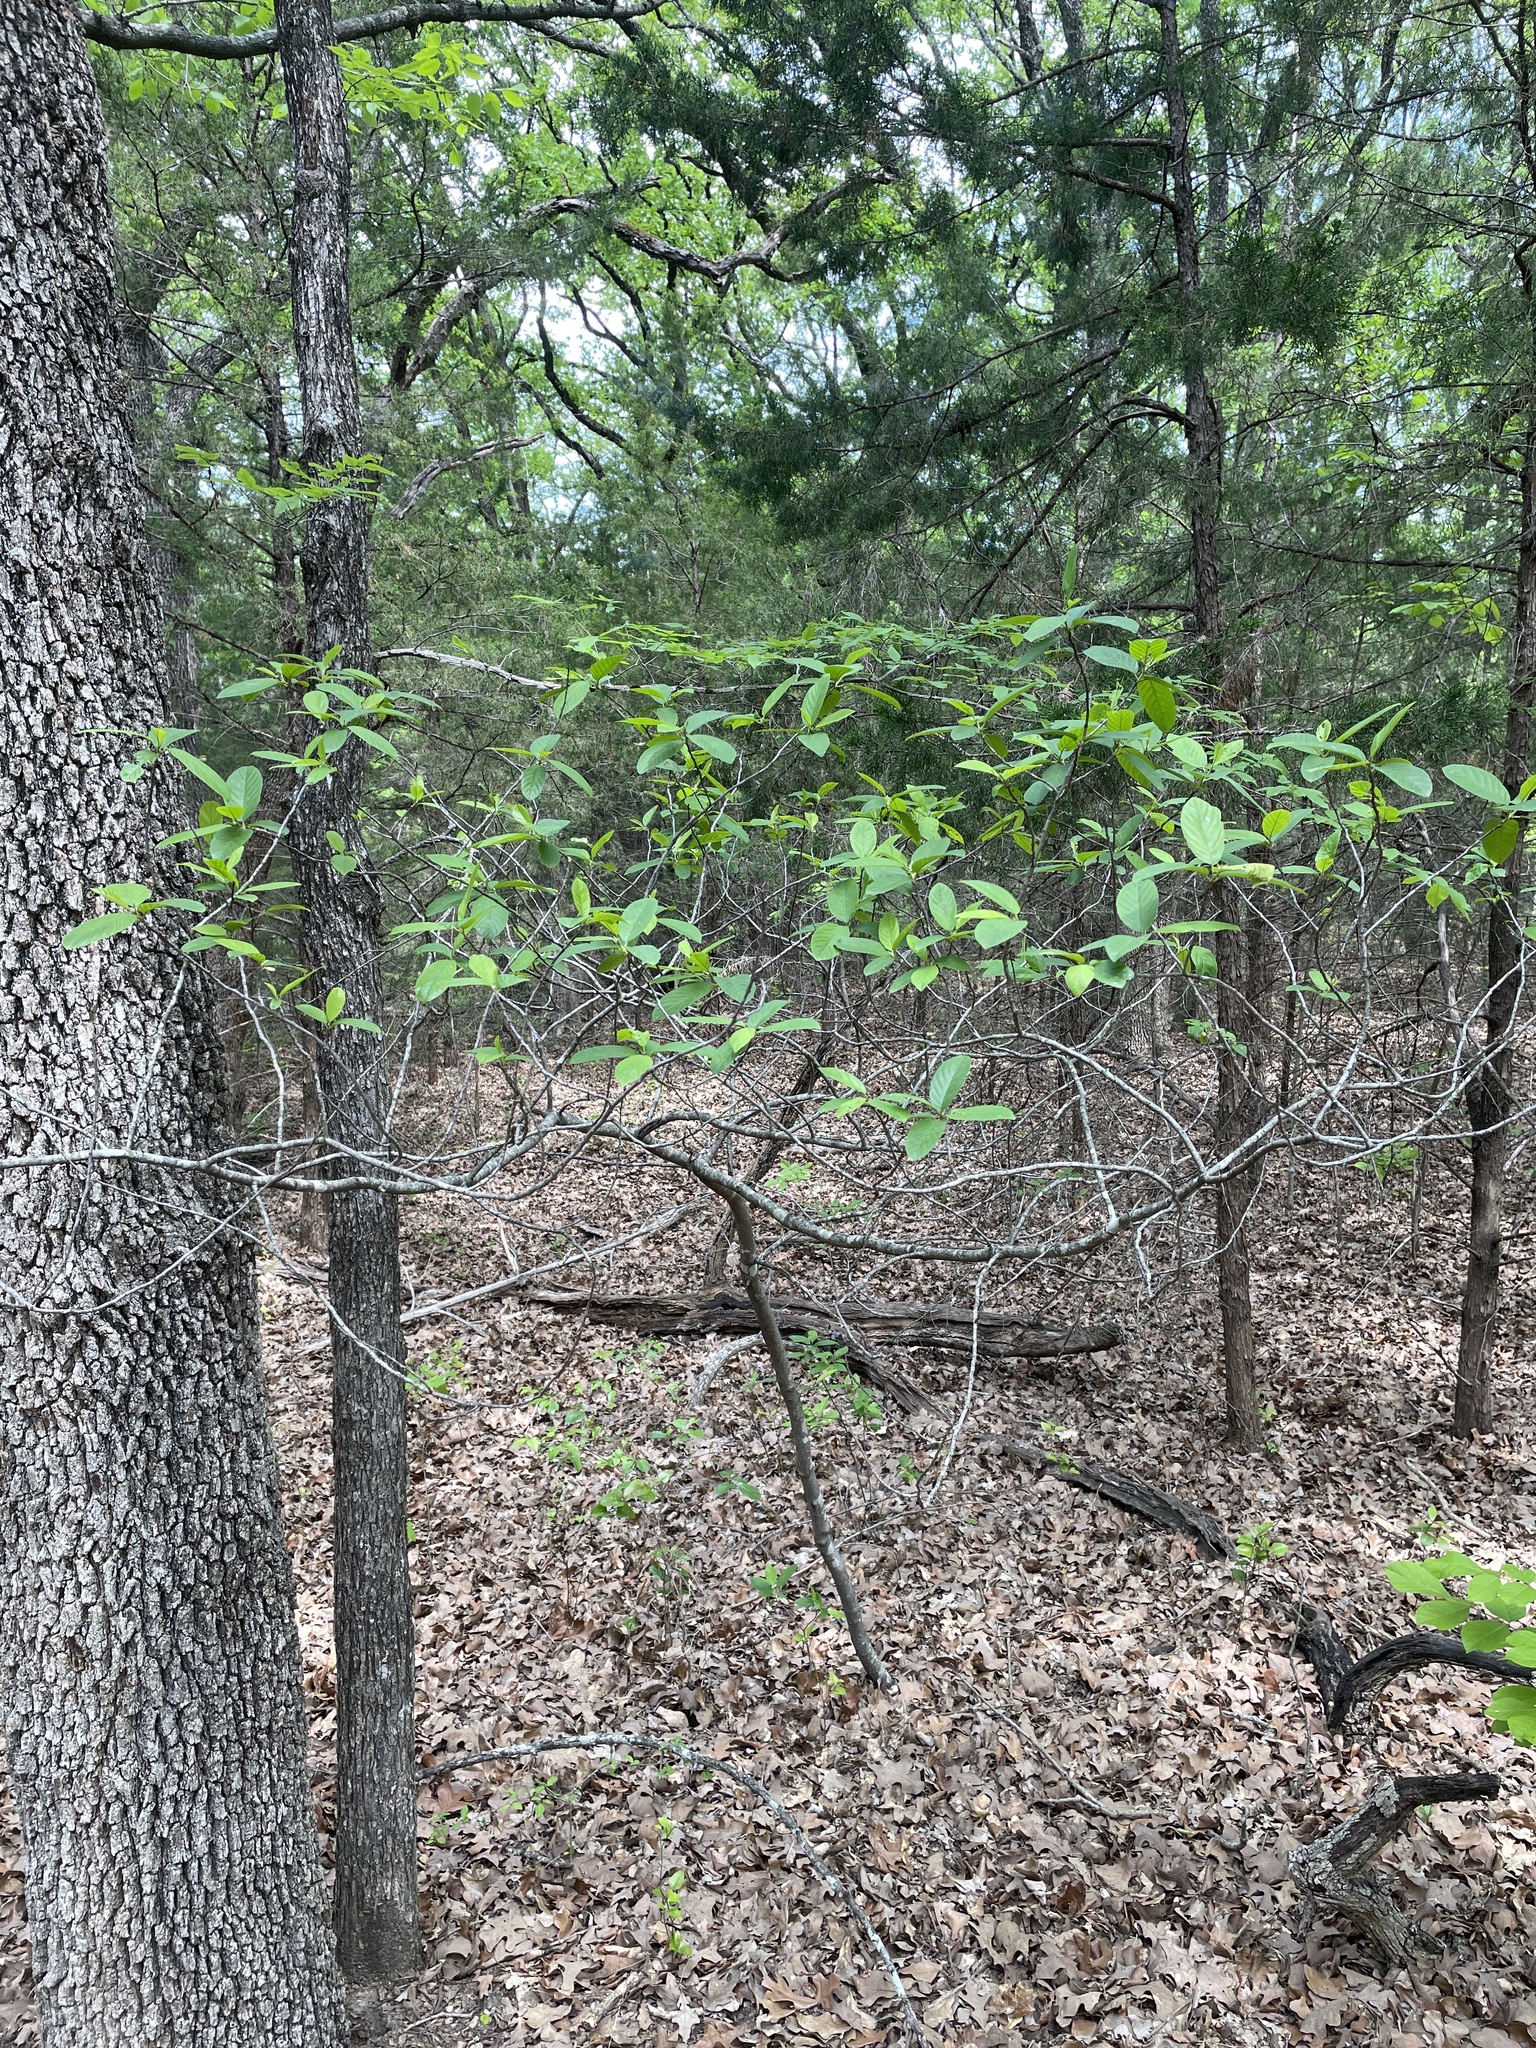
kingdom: Plantae
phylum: Tracheophyta
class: Magnoliopsida
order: Rosales
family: Rhamnaceae
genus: Frangula
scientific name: Frangula caroliniana
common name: Carolina buckthorn
